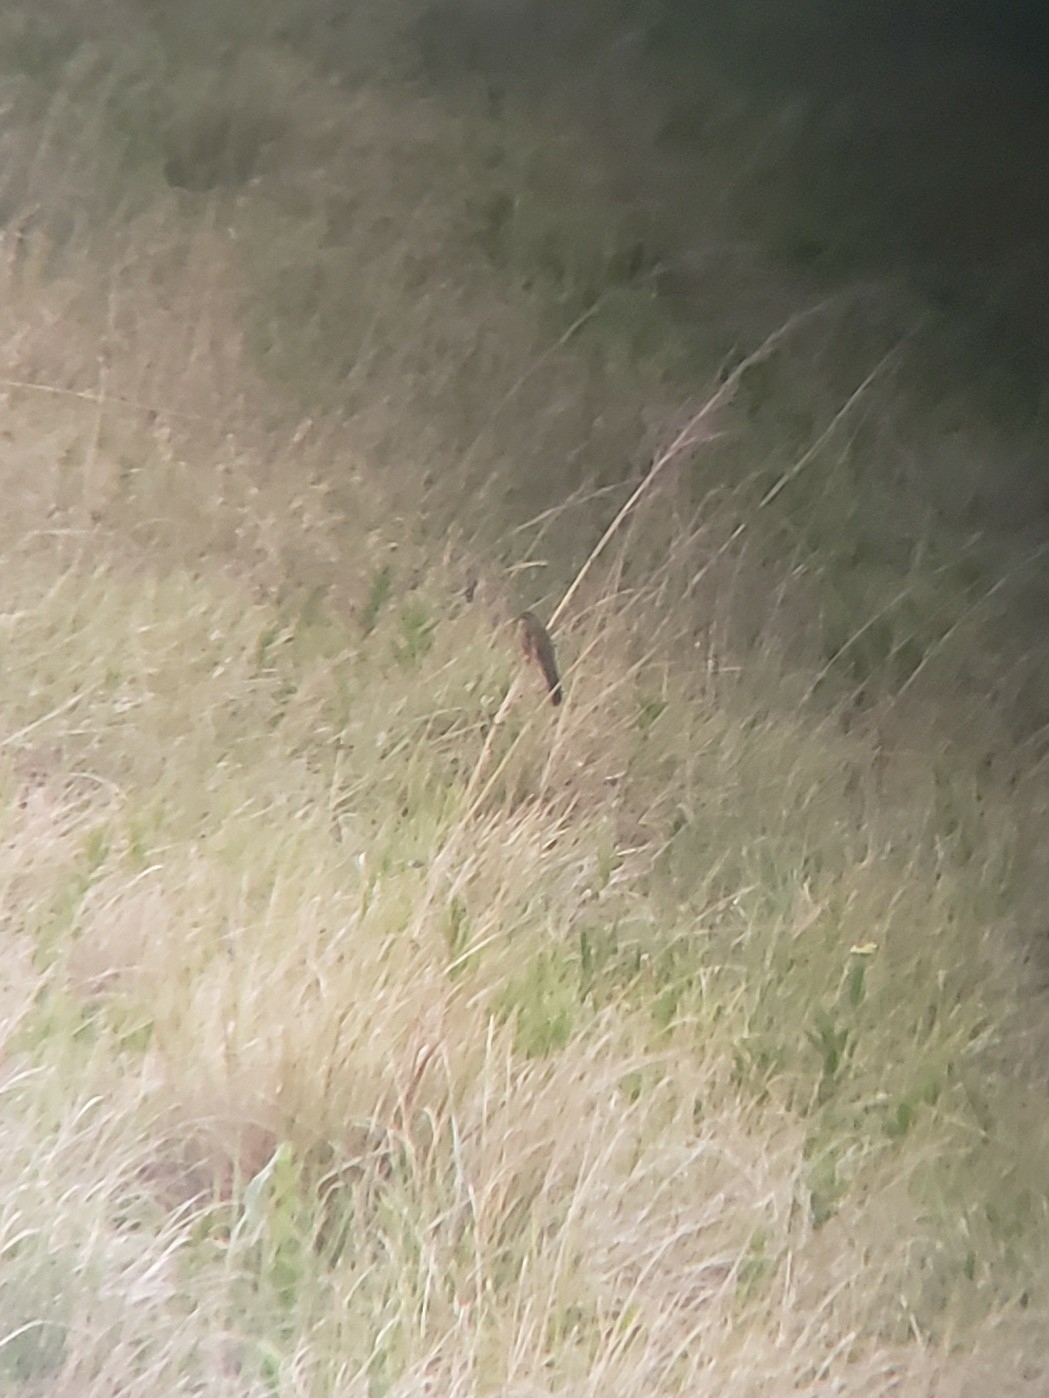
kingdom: Animalia
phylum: Chordata
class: Aves
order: Passeriformes
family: Locustellidae
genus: Schoenicola
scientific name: Schoenicola brevirostris
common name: Fan-tailed grassbird
